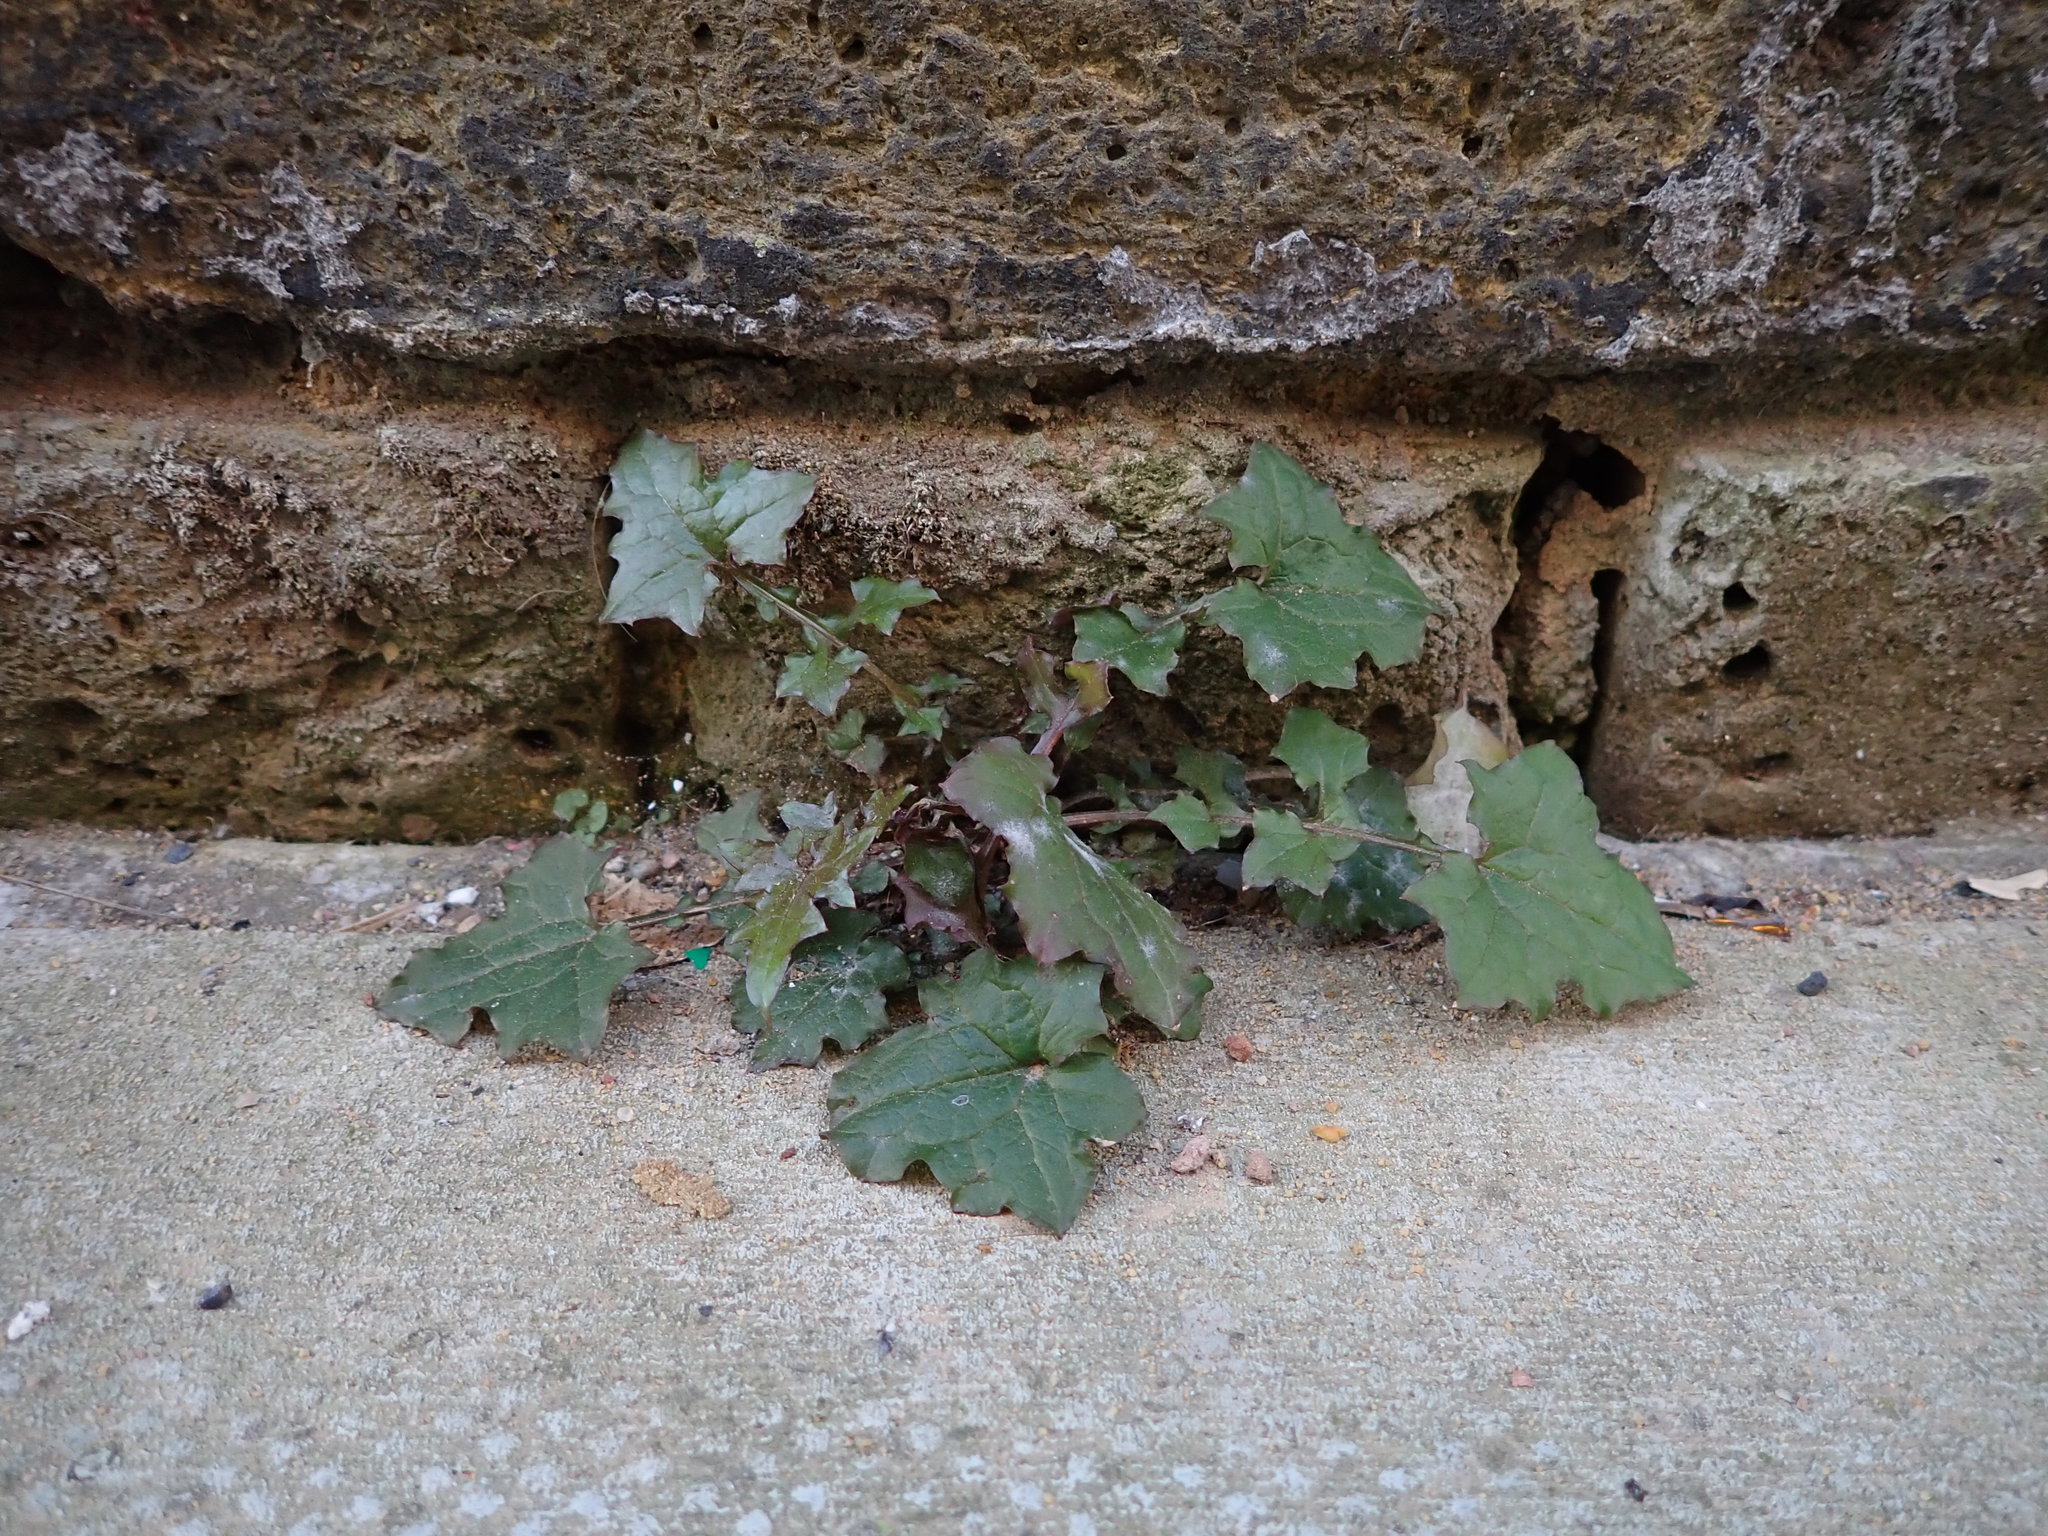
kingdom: Plantae
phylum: Tracheophyta
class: Magnoliopsida
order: Asterales
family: Asteraceae
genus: Mycelis
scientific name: Mycelis muralis
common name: Wall lettuce
